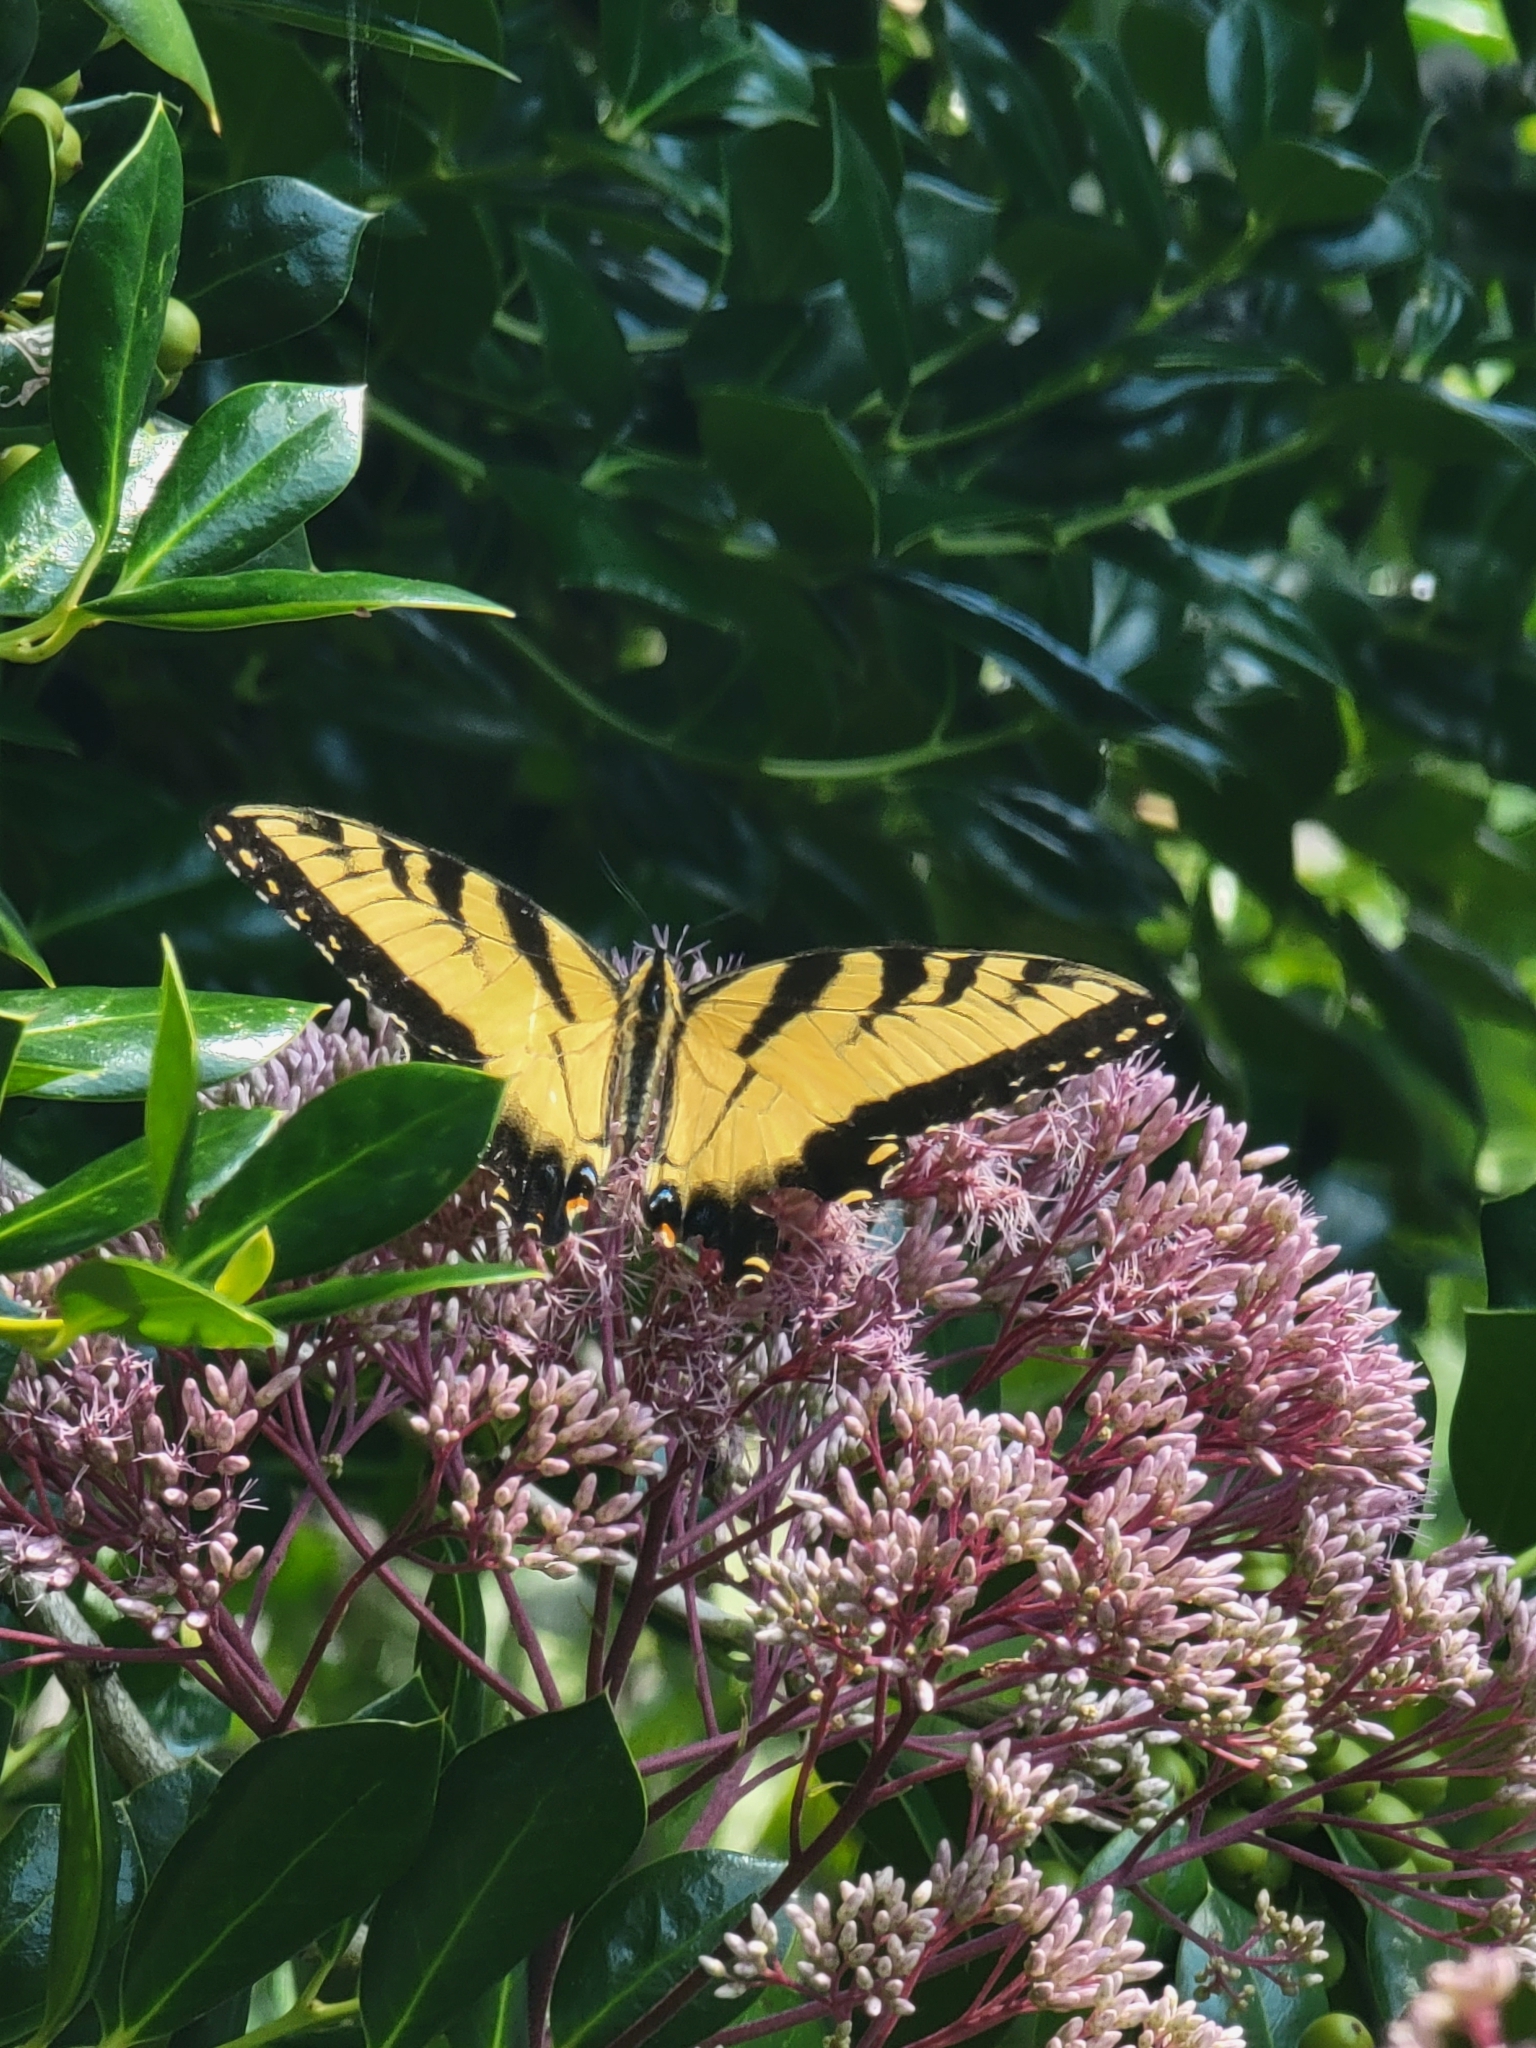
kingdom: Animalia
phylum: Arthropoda
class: Insecta
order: Lepidoptera
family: Papilionidae
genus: Papilio
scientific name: Papilio glaucus
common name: Tiger swallowtail
